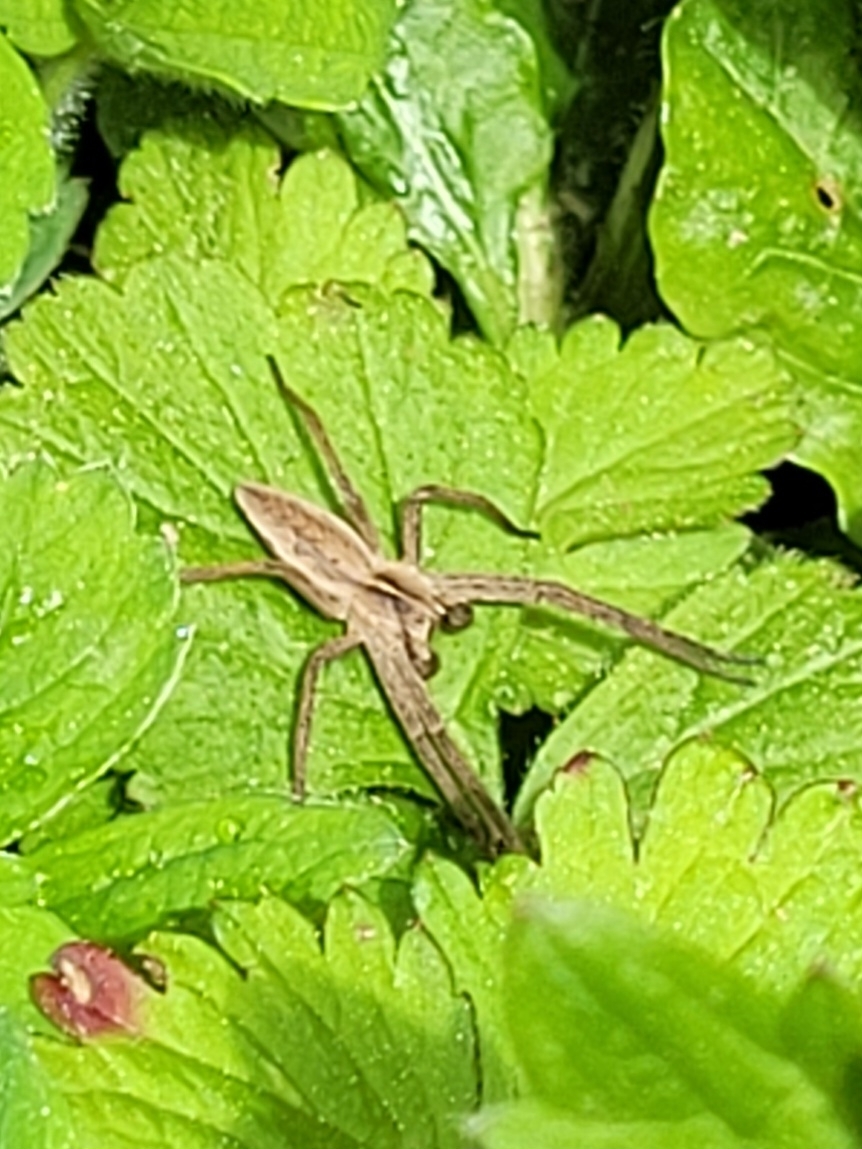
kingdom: Animalia
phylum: Arthropoda
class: Arachnida
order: Araneae
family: Pisauridae
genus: Pisaura
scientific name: Pisaura mirabilis
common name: Tent spider
